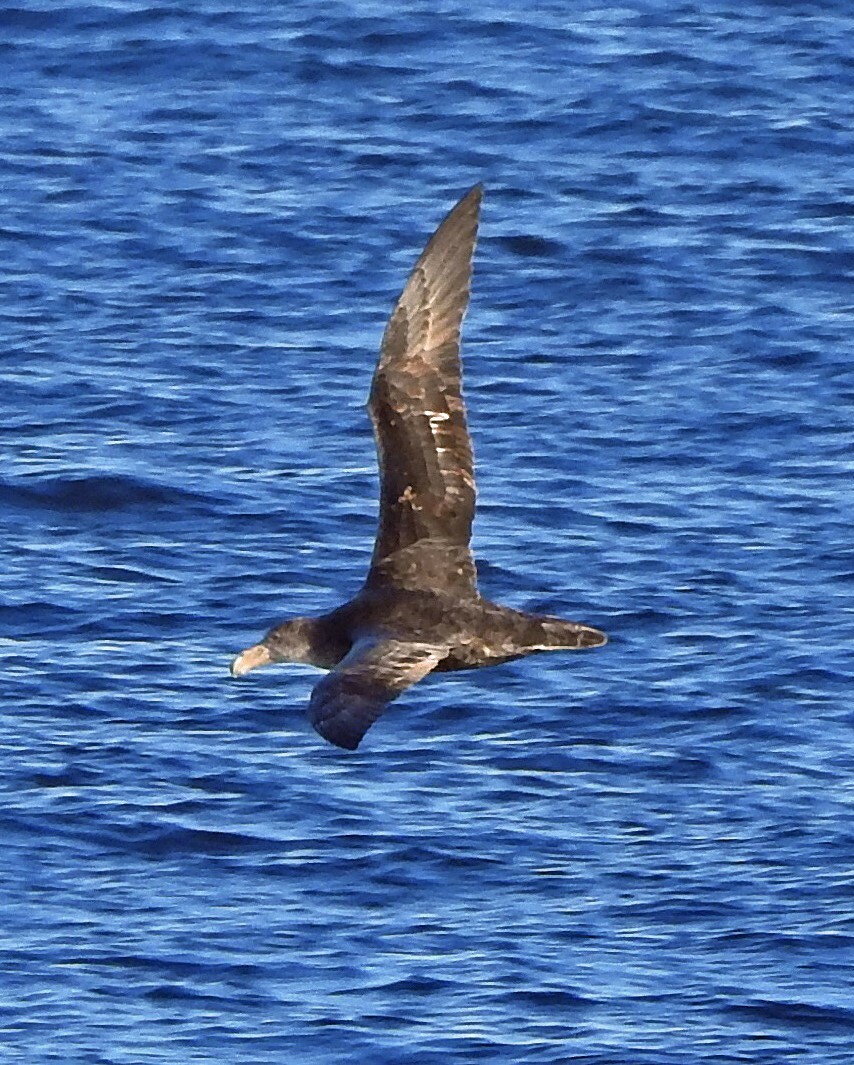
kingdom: Animalia
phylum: Chordata
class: Aves
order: Procellariiformes
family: Procellariidae
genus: Macronectes
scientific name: Macronectes giganteus
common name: Southern giant petrel
